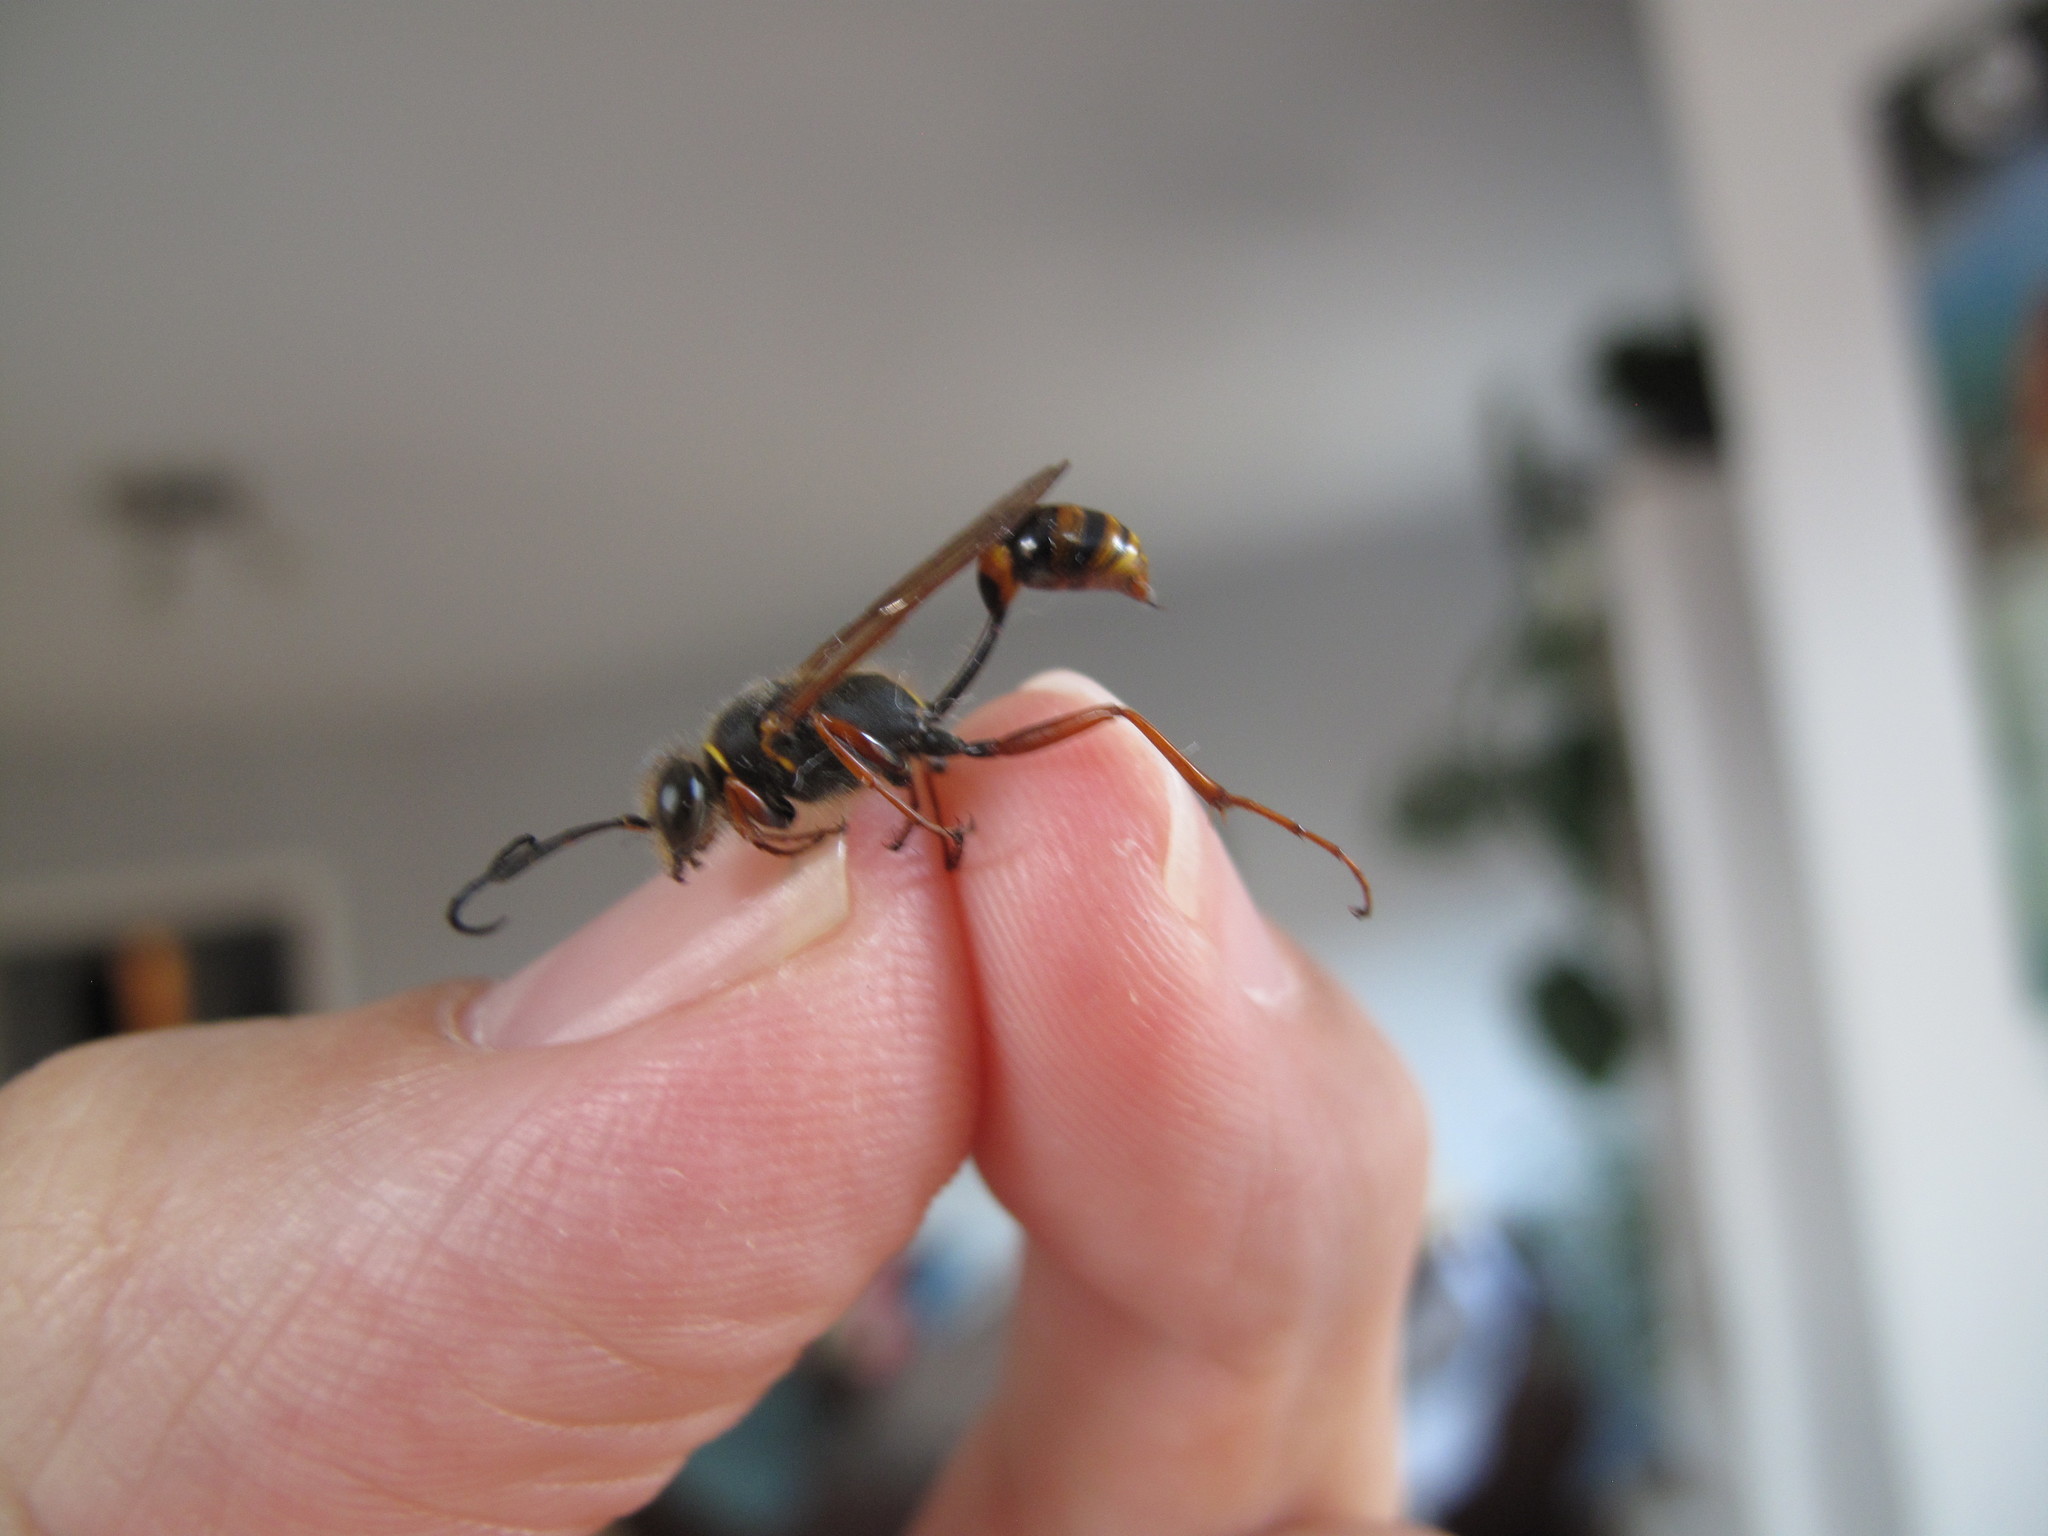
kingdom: Animalia
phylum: Arthropoda
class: Insecta
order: Hymenoptera
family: Sphecidae
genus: Sceliphron
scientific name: Sceliphron curvatum
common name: Pèlopèe
